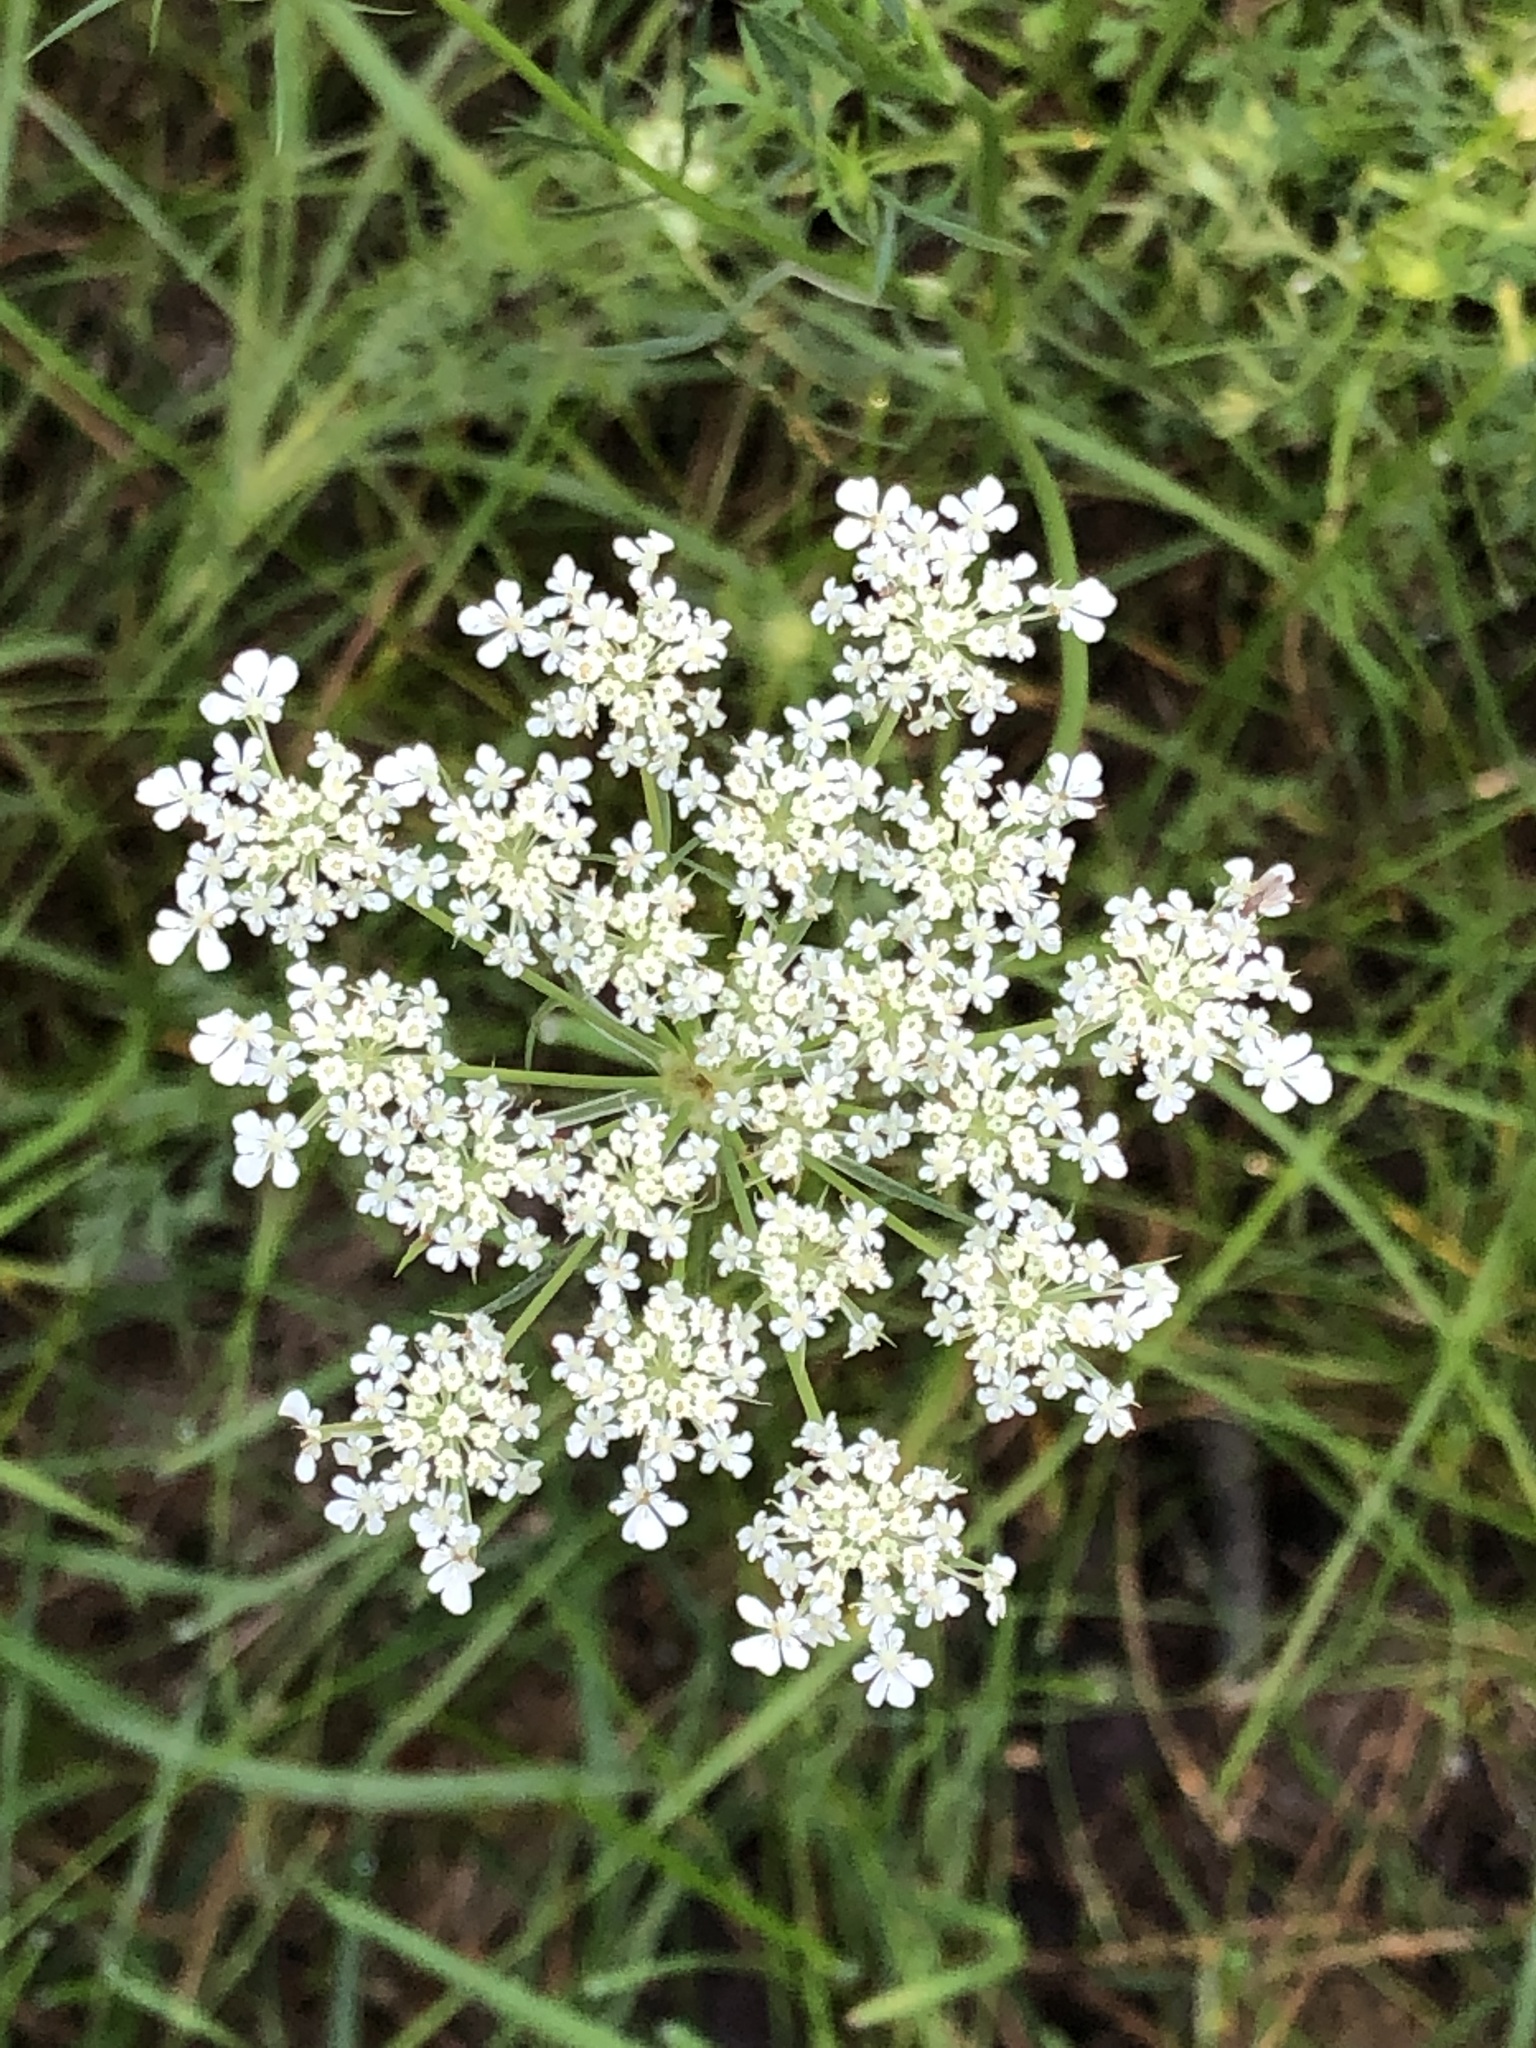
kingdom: Plantae
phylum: Tracheophyta
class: Magnoliopsida
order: Apiales
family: Apiaceae
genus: Daucus
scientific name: Daucus carota
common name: Wild carrot
